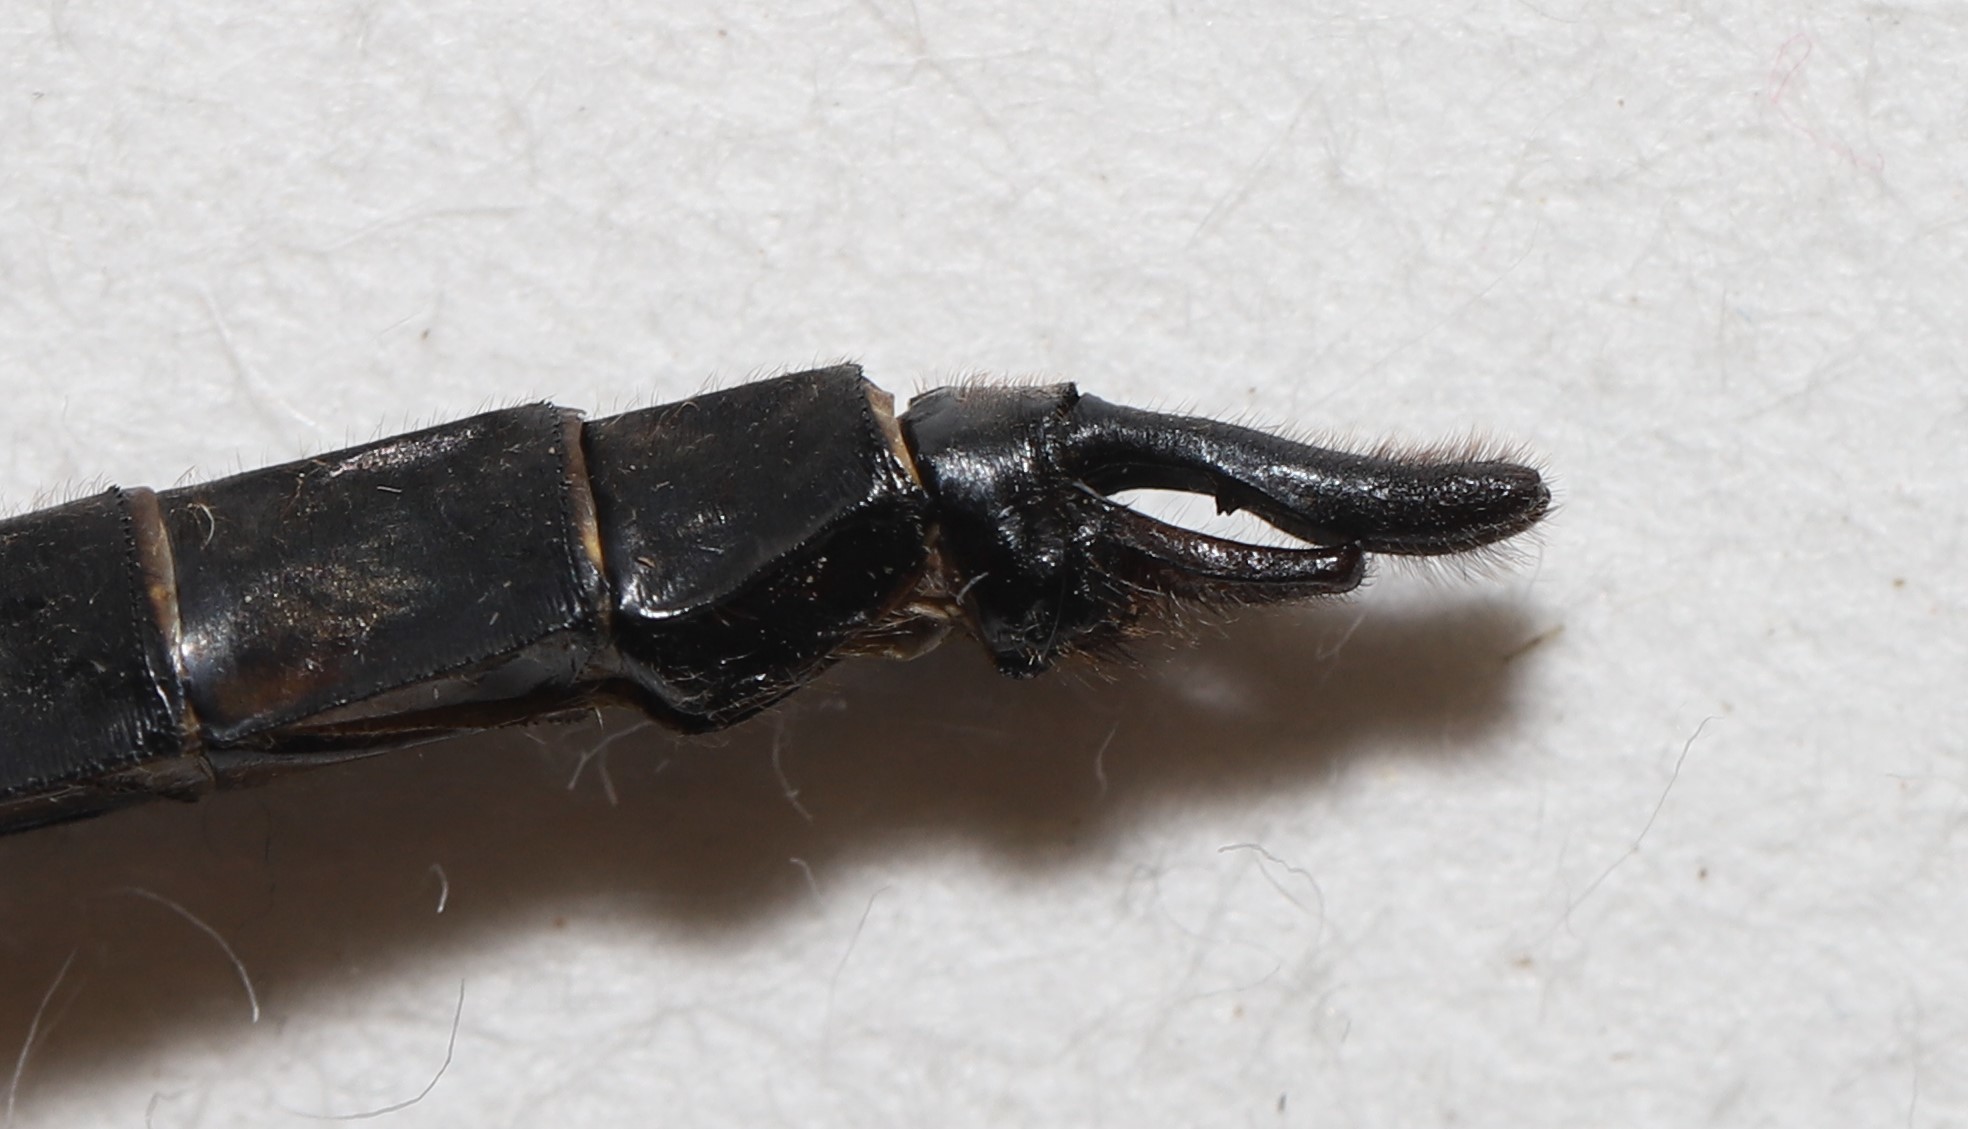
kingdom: Animalia
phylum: Arthropoda
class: Insecta
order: Odonata
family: Corduliidae
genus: Epitheca
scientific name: Epitheca spinigera
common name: Spiny baskettail
